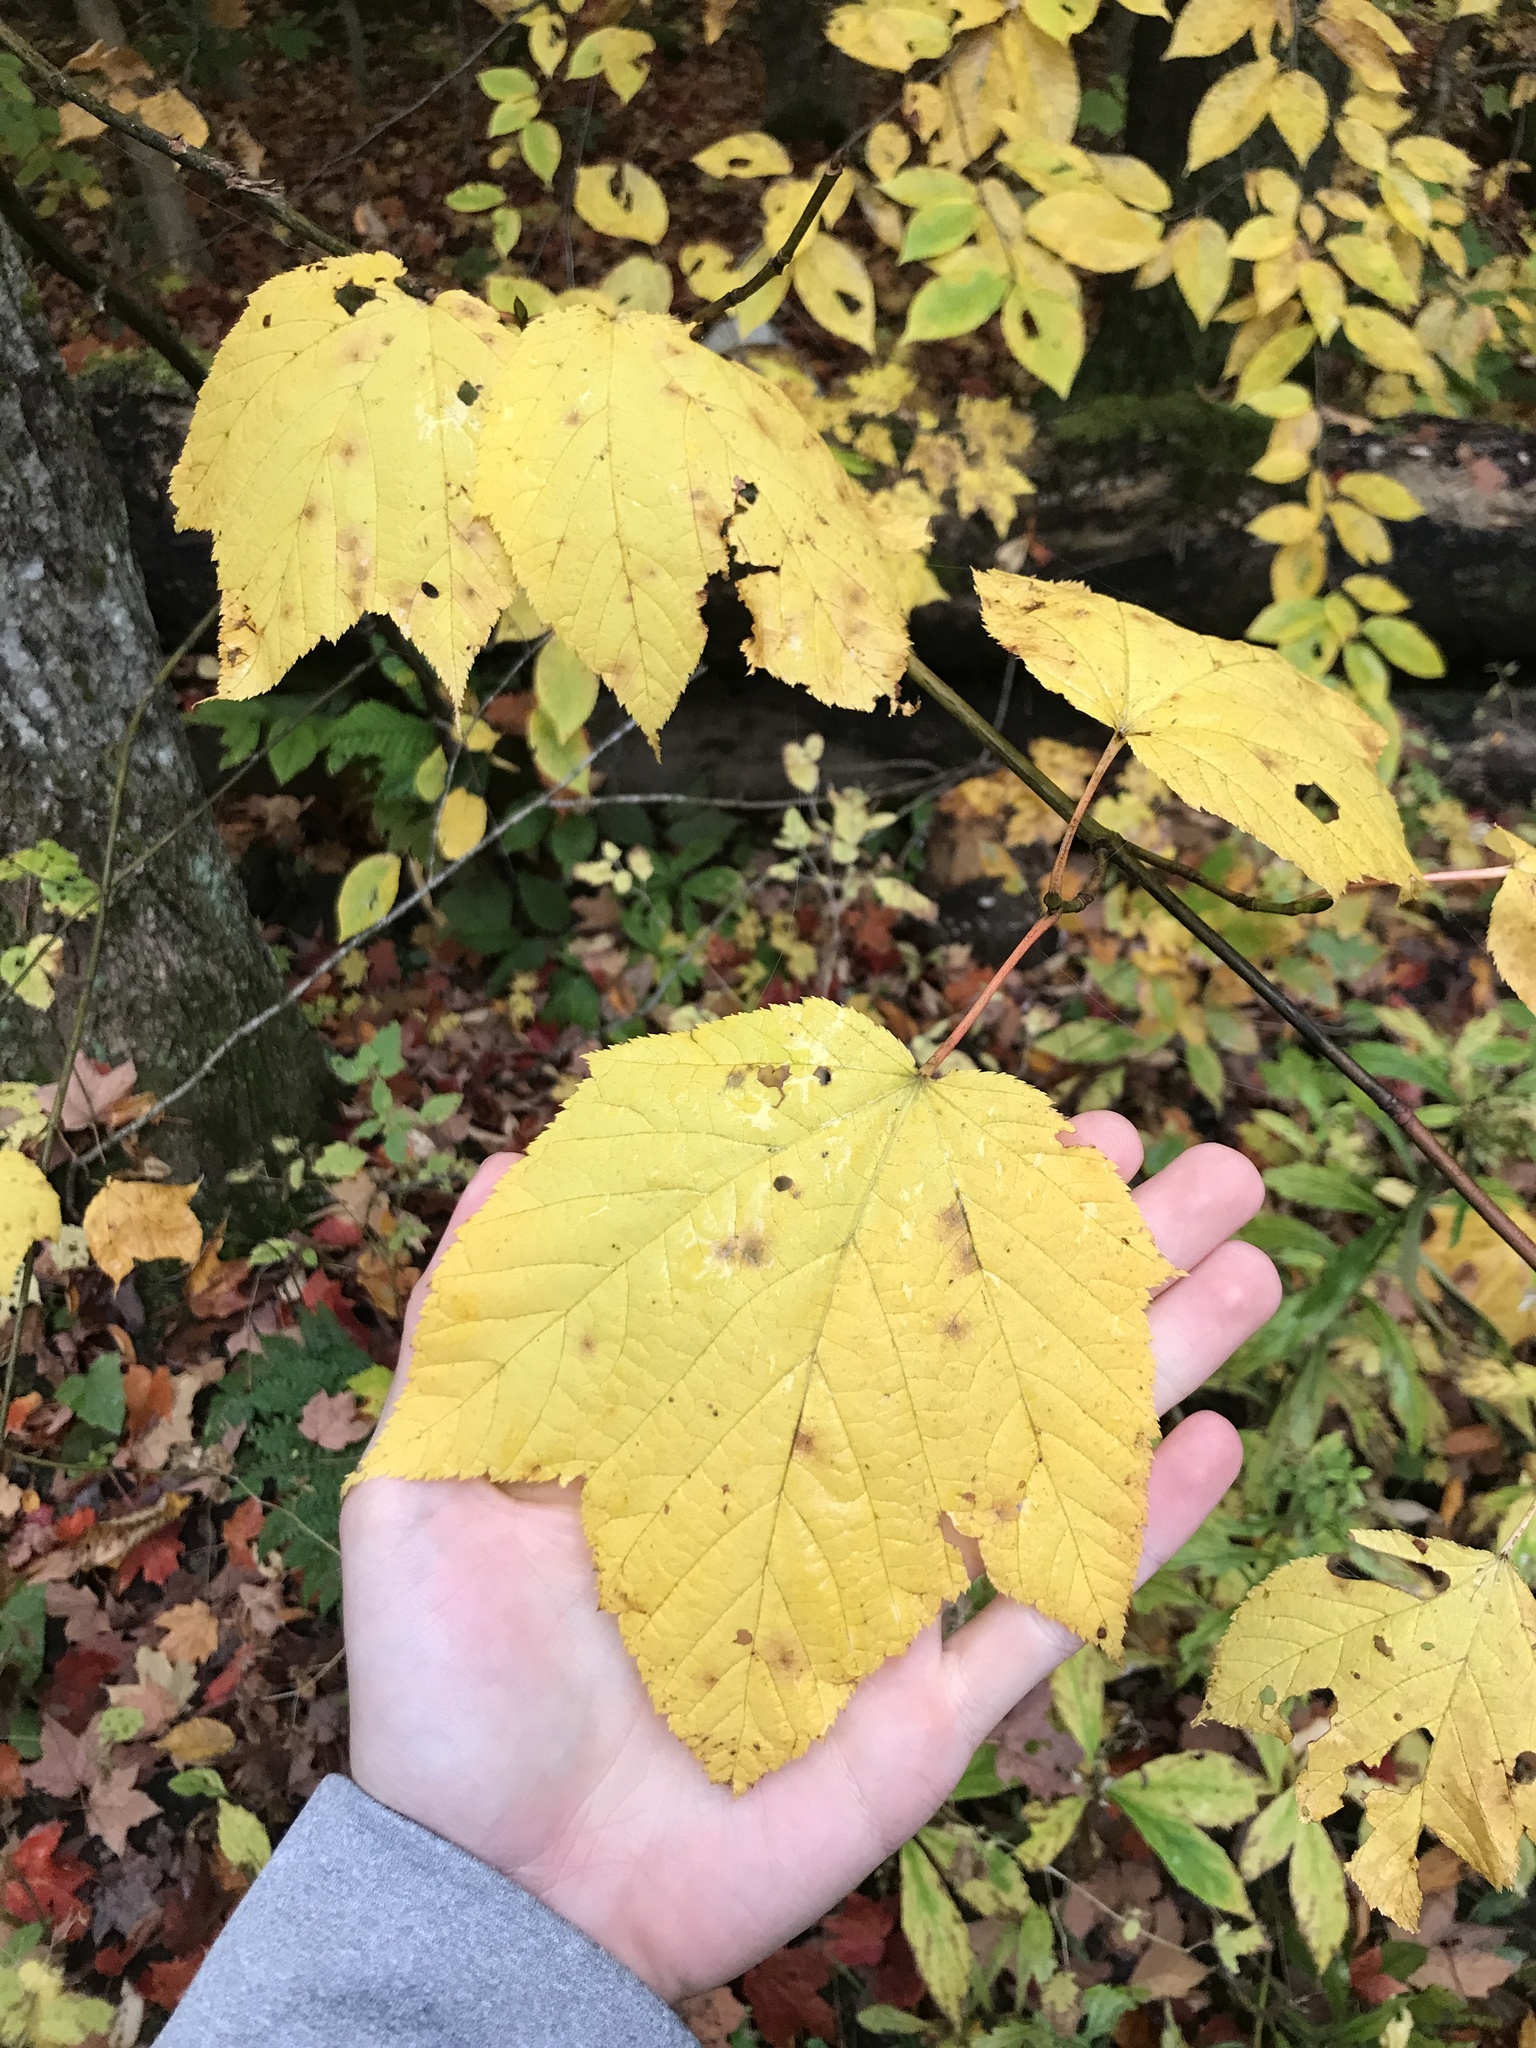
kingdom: Plantae
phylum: Tracheophyta
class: Magnoliopsida
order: Sapindales
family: Sapindaceae
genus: Acer
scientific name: Acer pensylvanicum
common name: Moosewood
